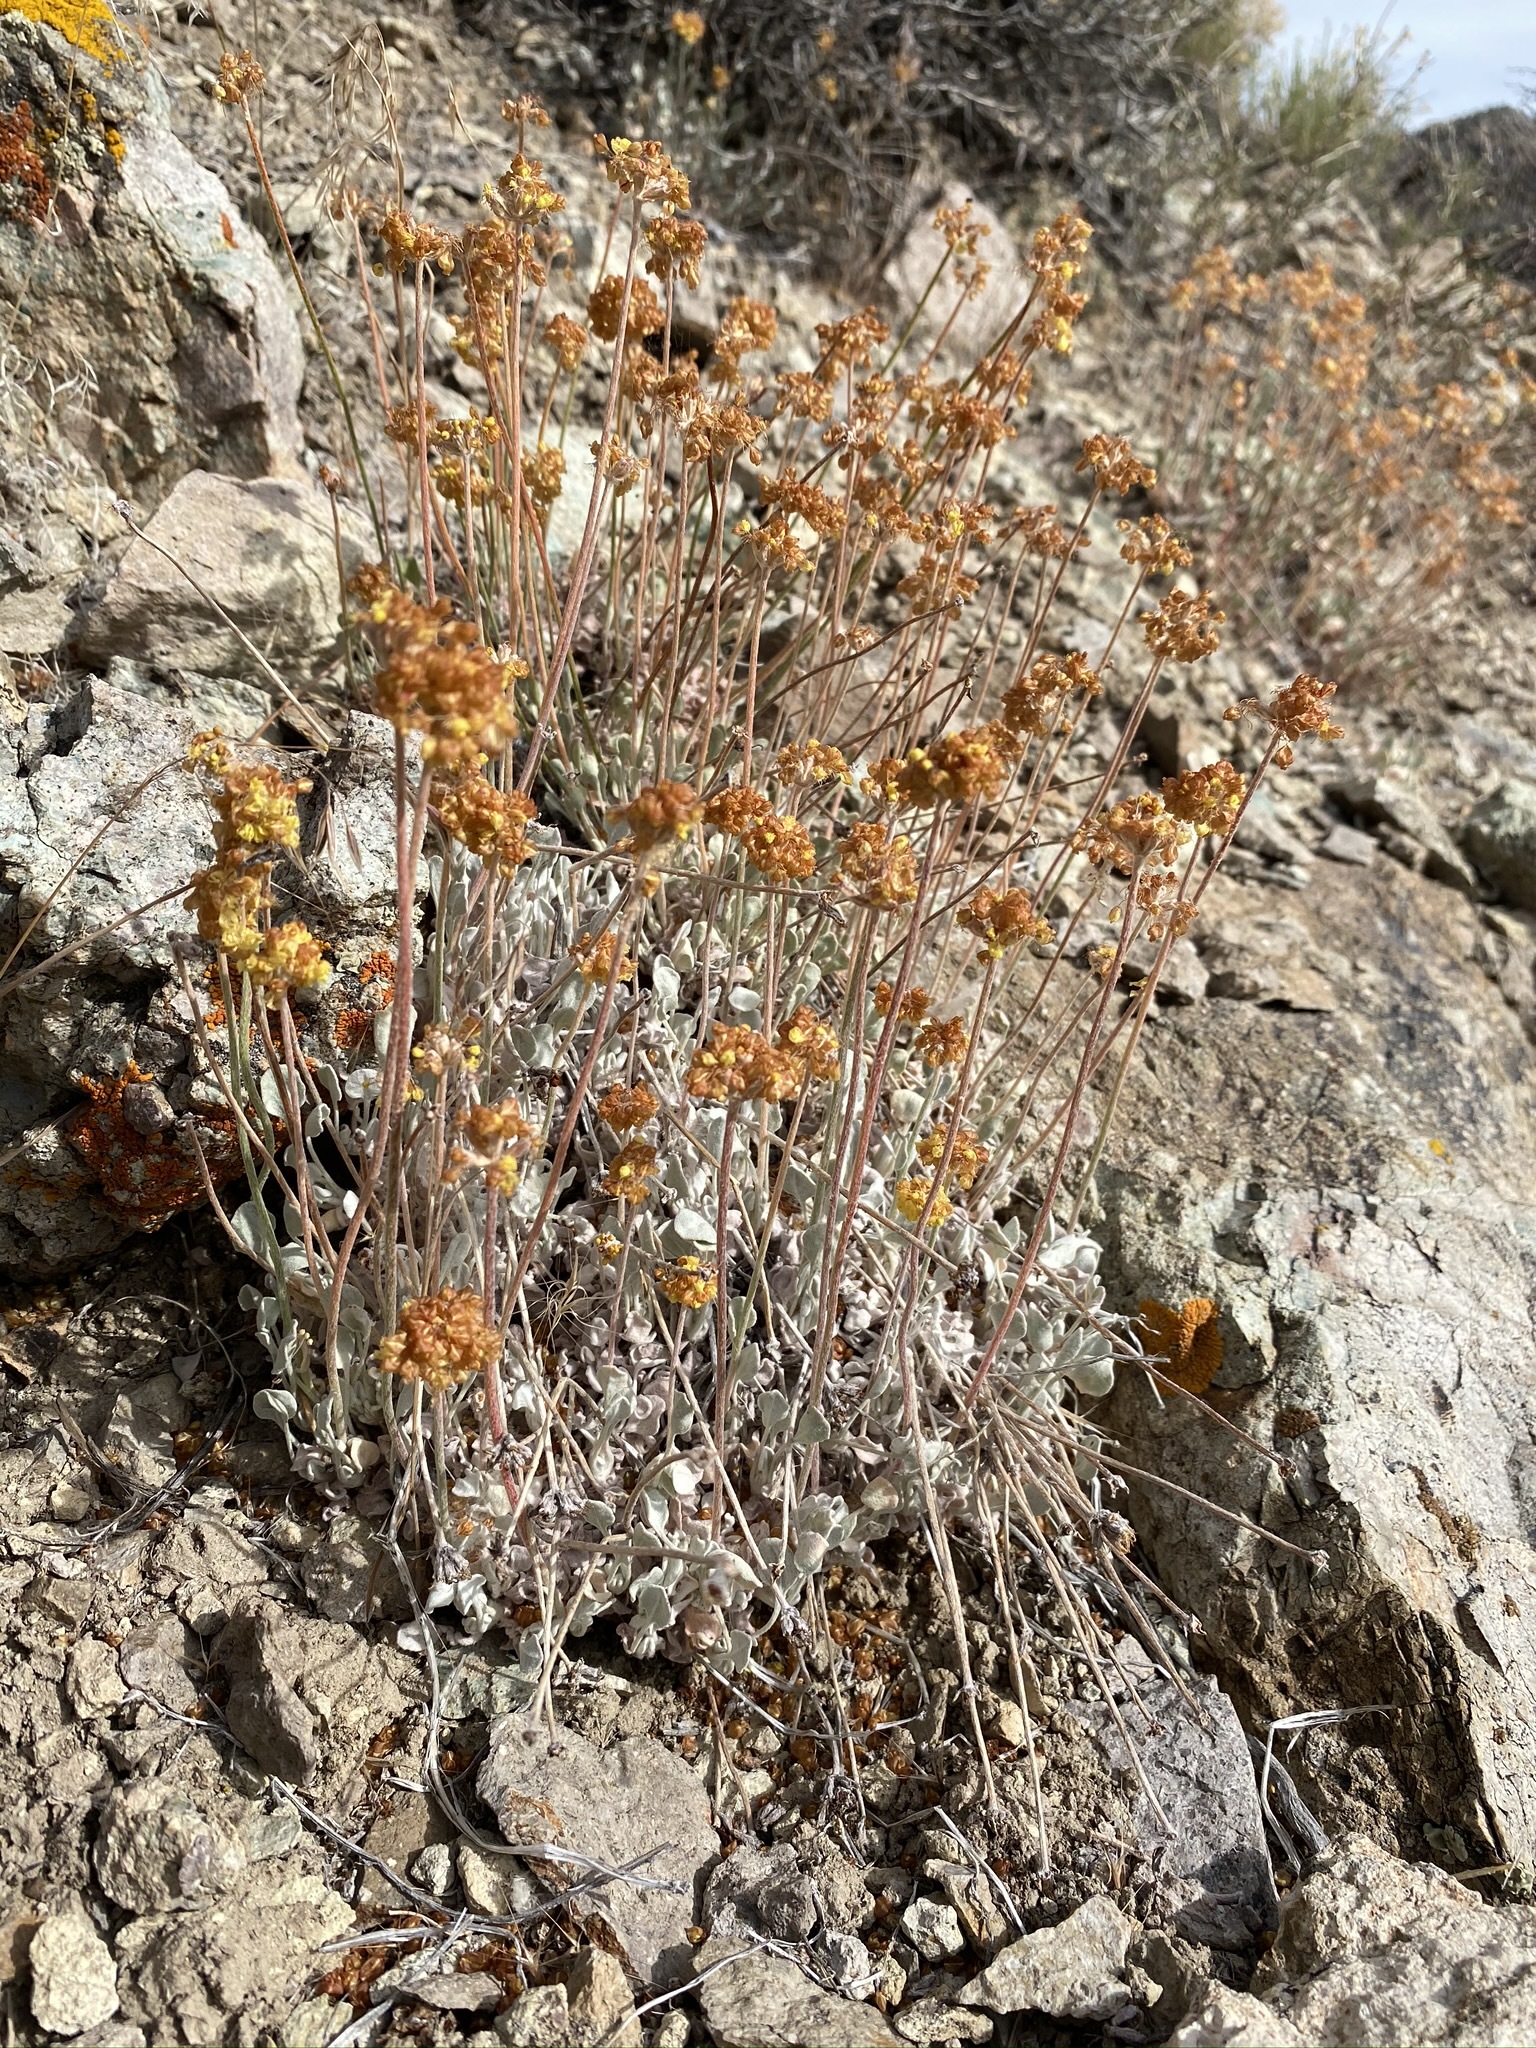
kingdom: Plantae
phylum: Tracheophyta
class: Magnoliopsida
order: Caryophyllales
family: Polygonaceae
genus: Eriogonum
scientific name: Eriogonum ovalifolium
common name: Cushion buckwheat
